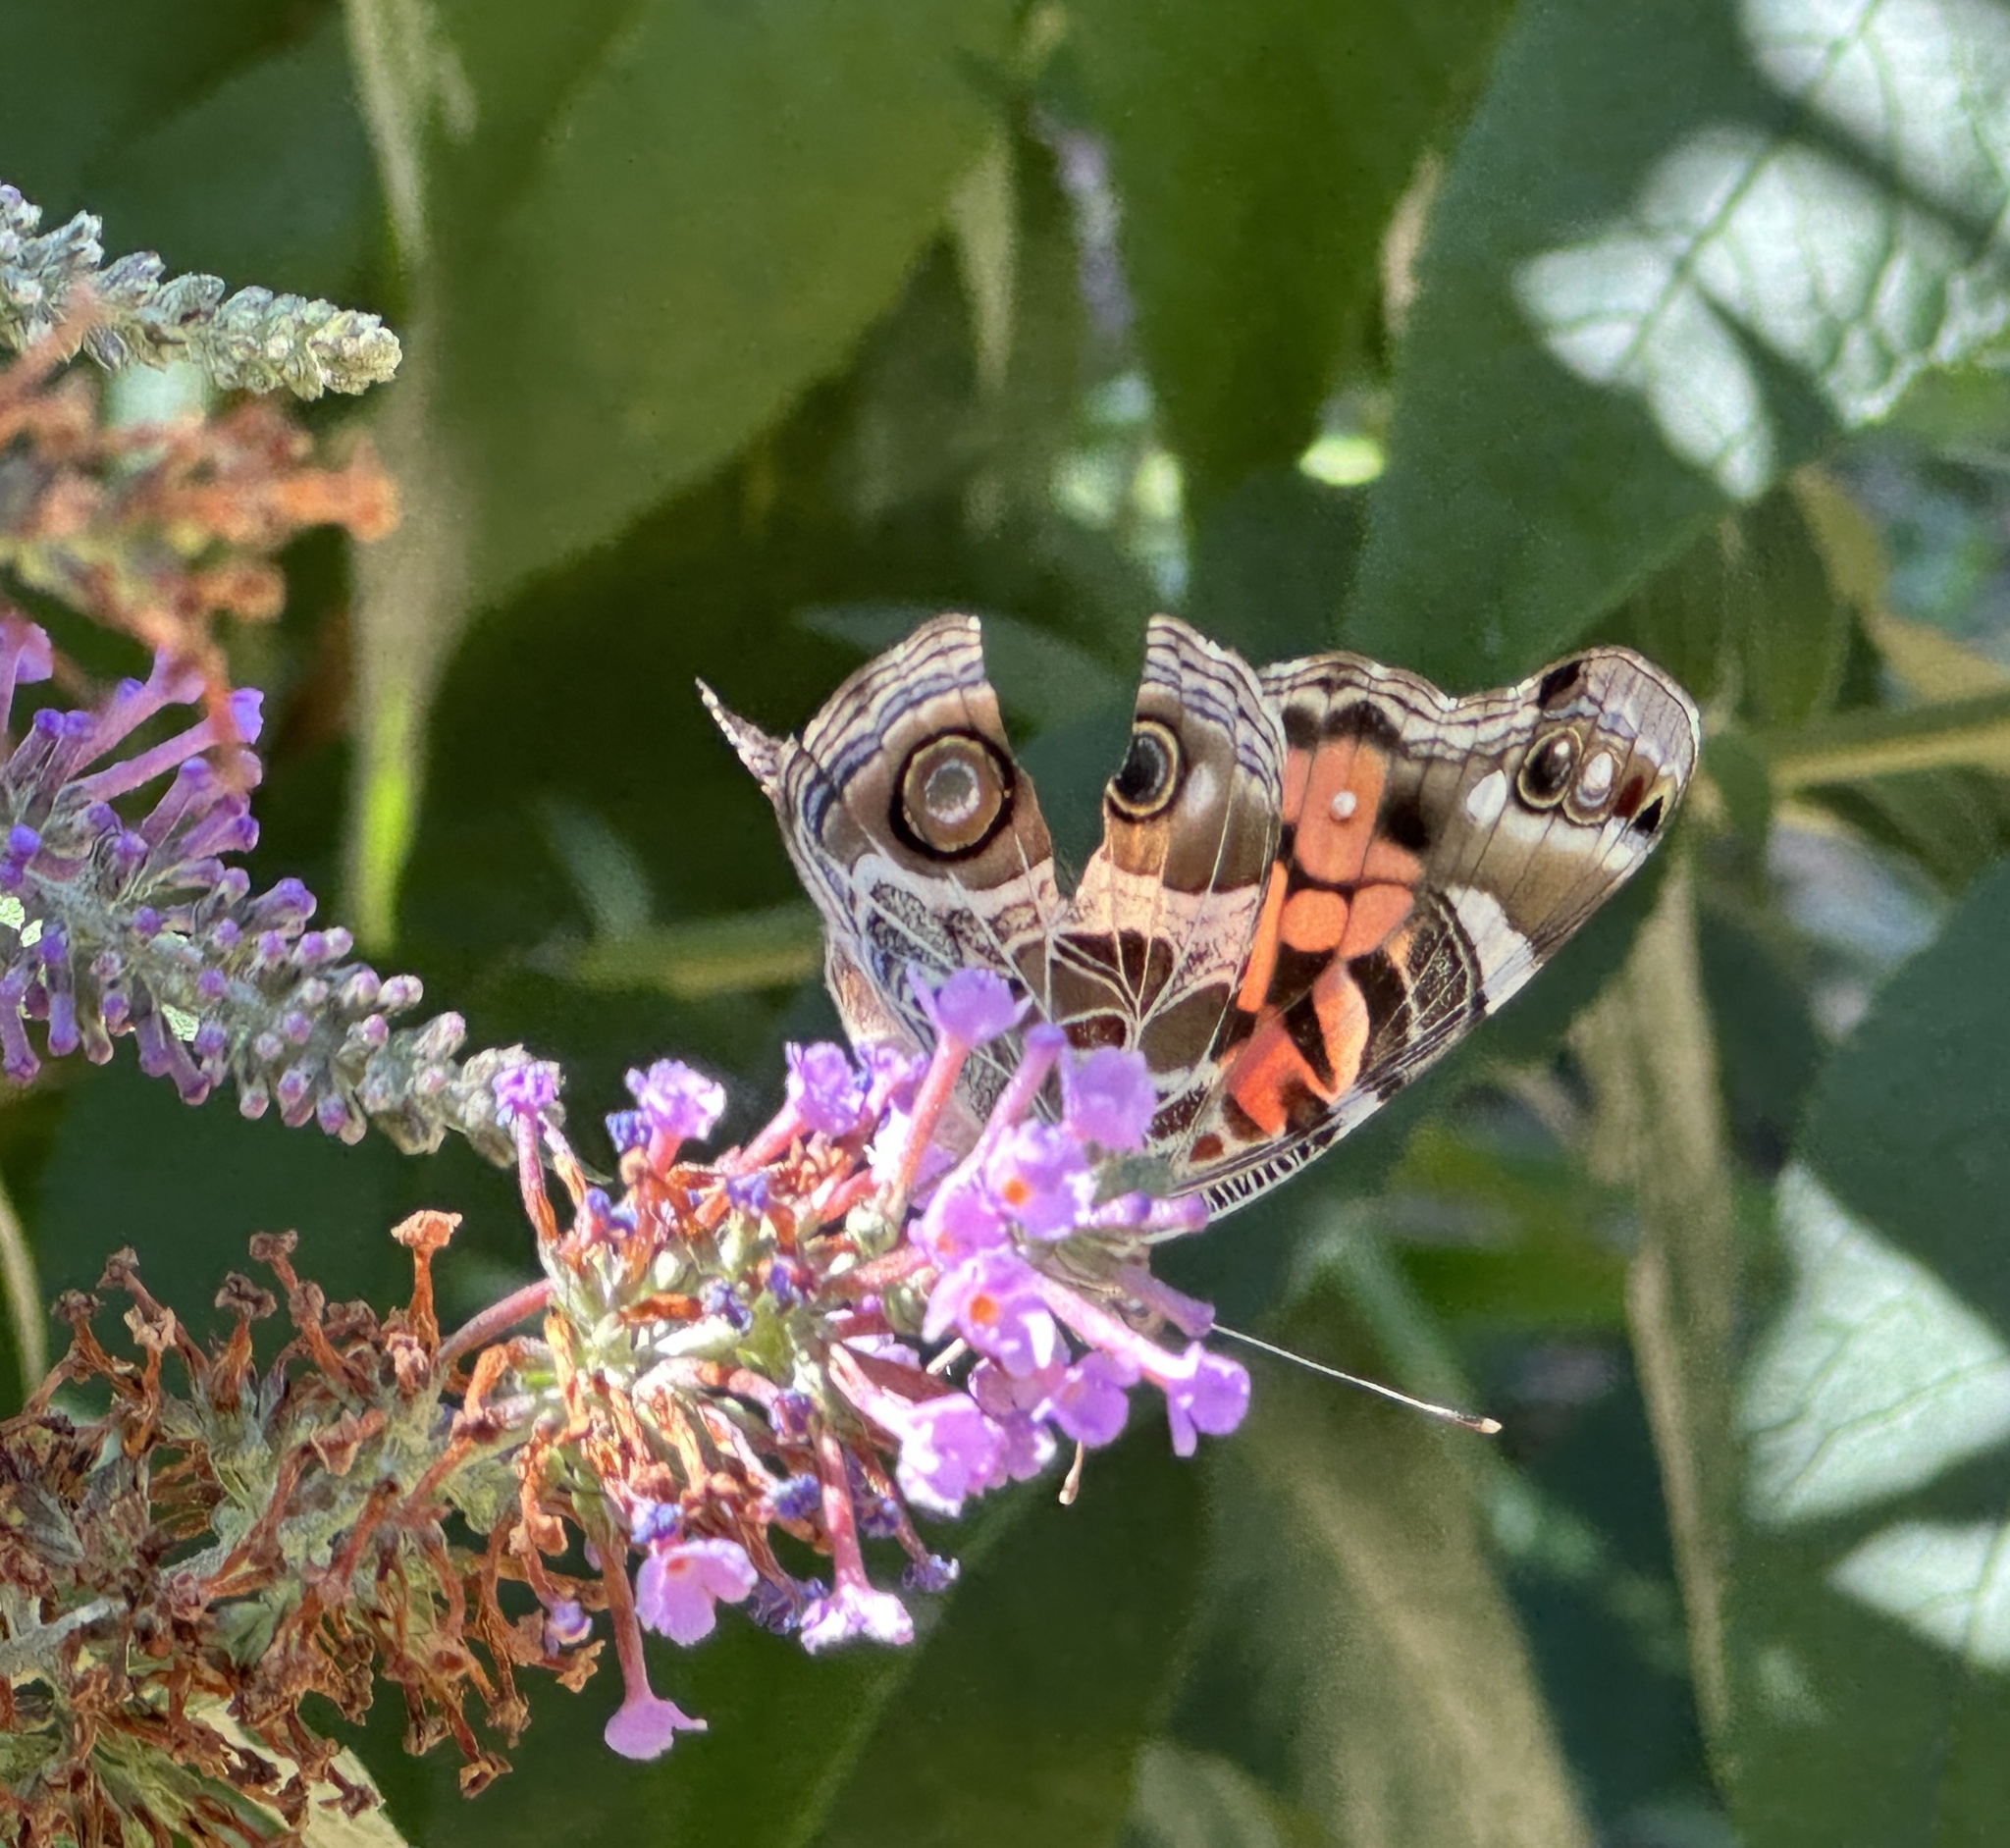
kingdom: Animalia
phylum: Arthropoda
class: Insecta
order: Lepidoptera
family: Nymphalidae
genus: Vanessa
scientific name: Vanessa virginiensis
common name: American lady
